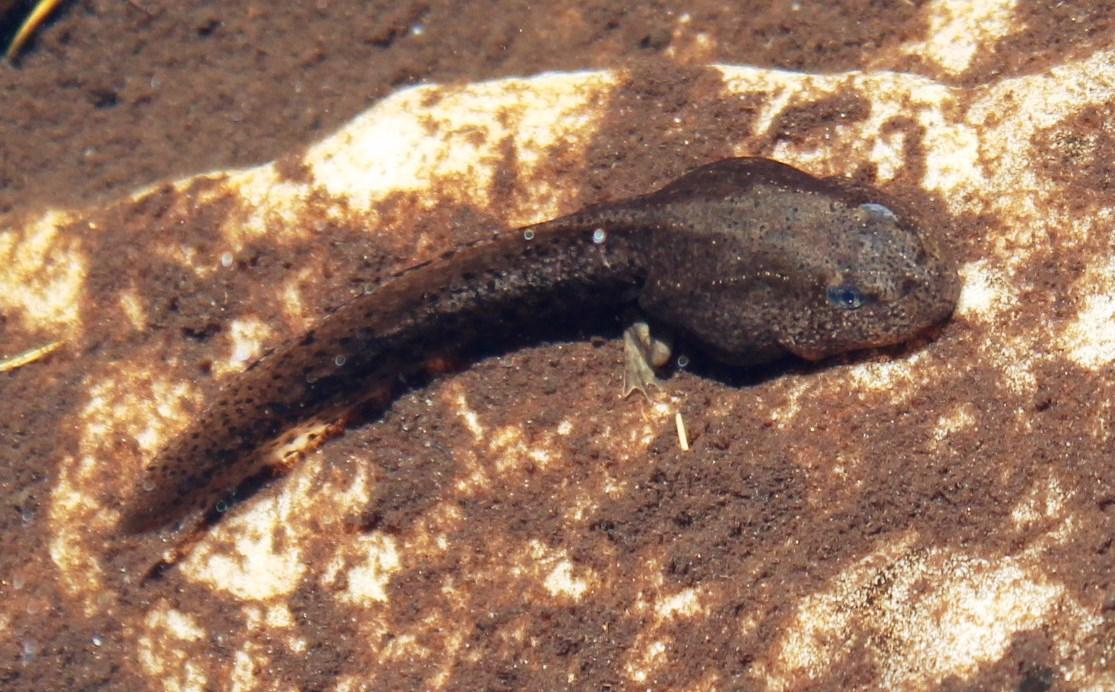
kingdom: Animalia
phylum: Chordata
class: Amphibia
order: Anura
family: Pyxicephalidae
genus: Amietia
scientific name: Amietia fuscigula
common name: Cape rana
